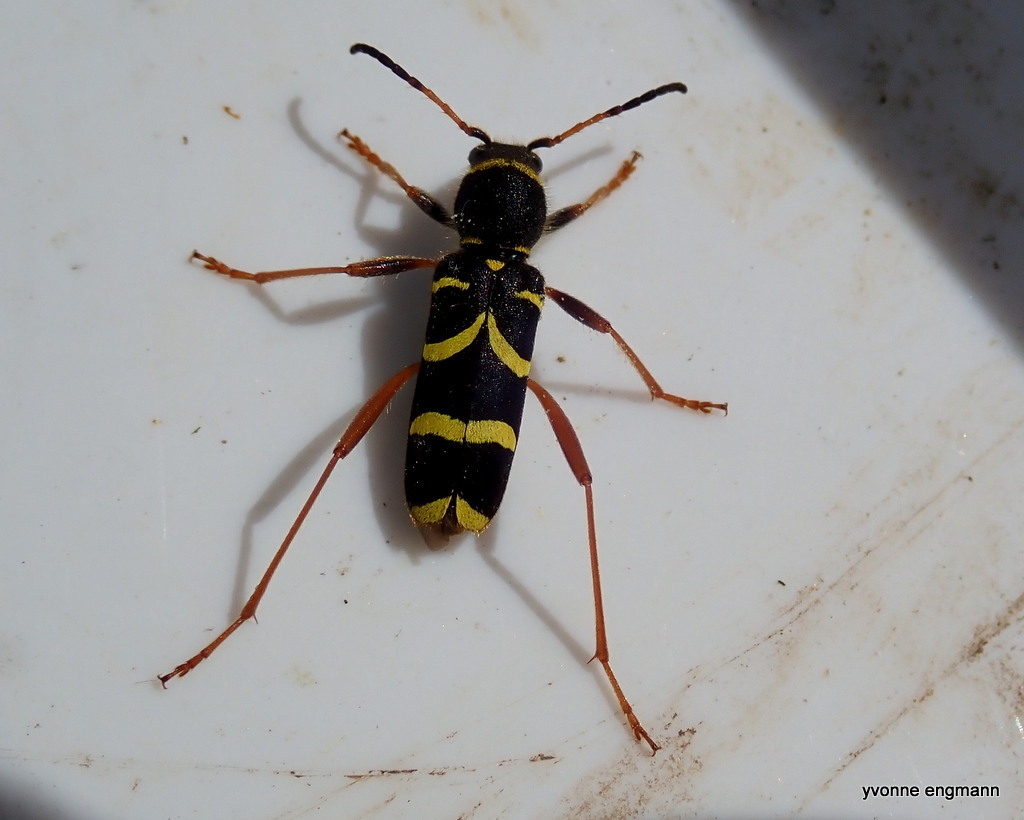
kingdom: Animalia
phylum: Arthropoda
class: Insecta
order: Coleoptera
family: Cerambycidae
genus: Clytus
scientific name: Clytus arietis
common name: Wasp beetle
